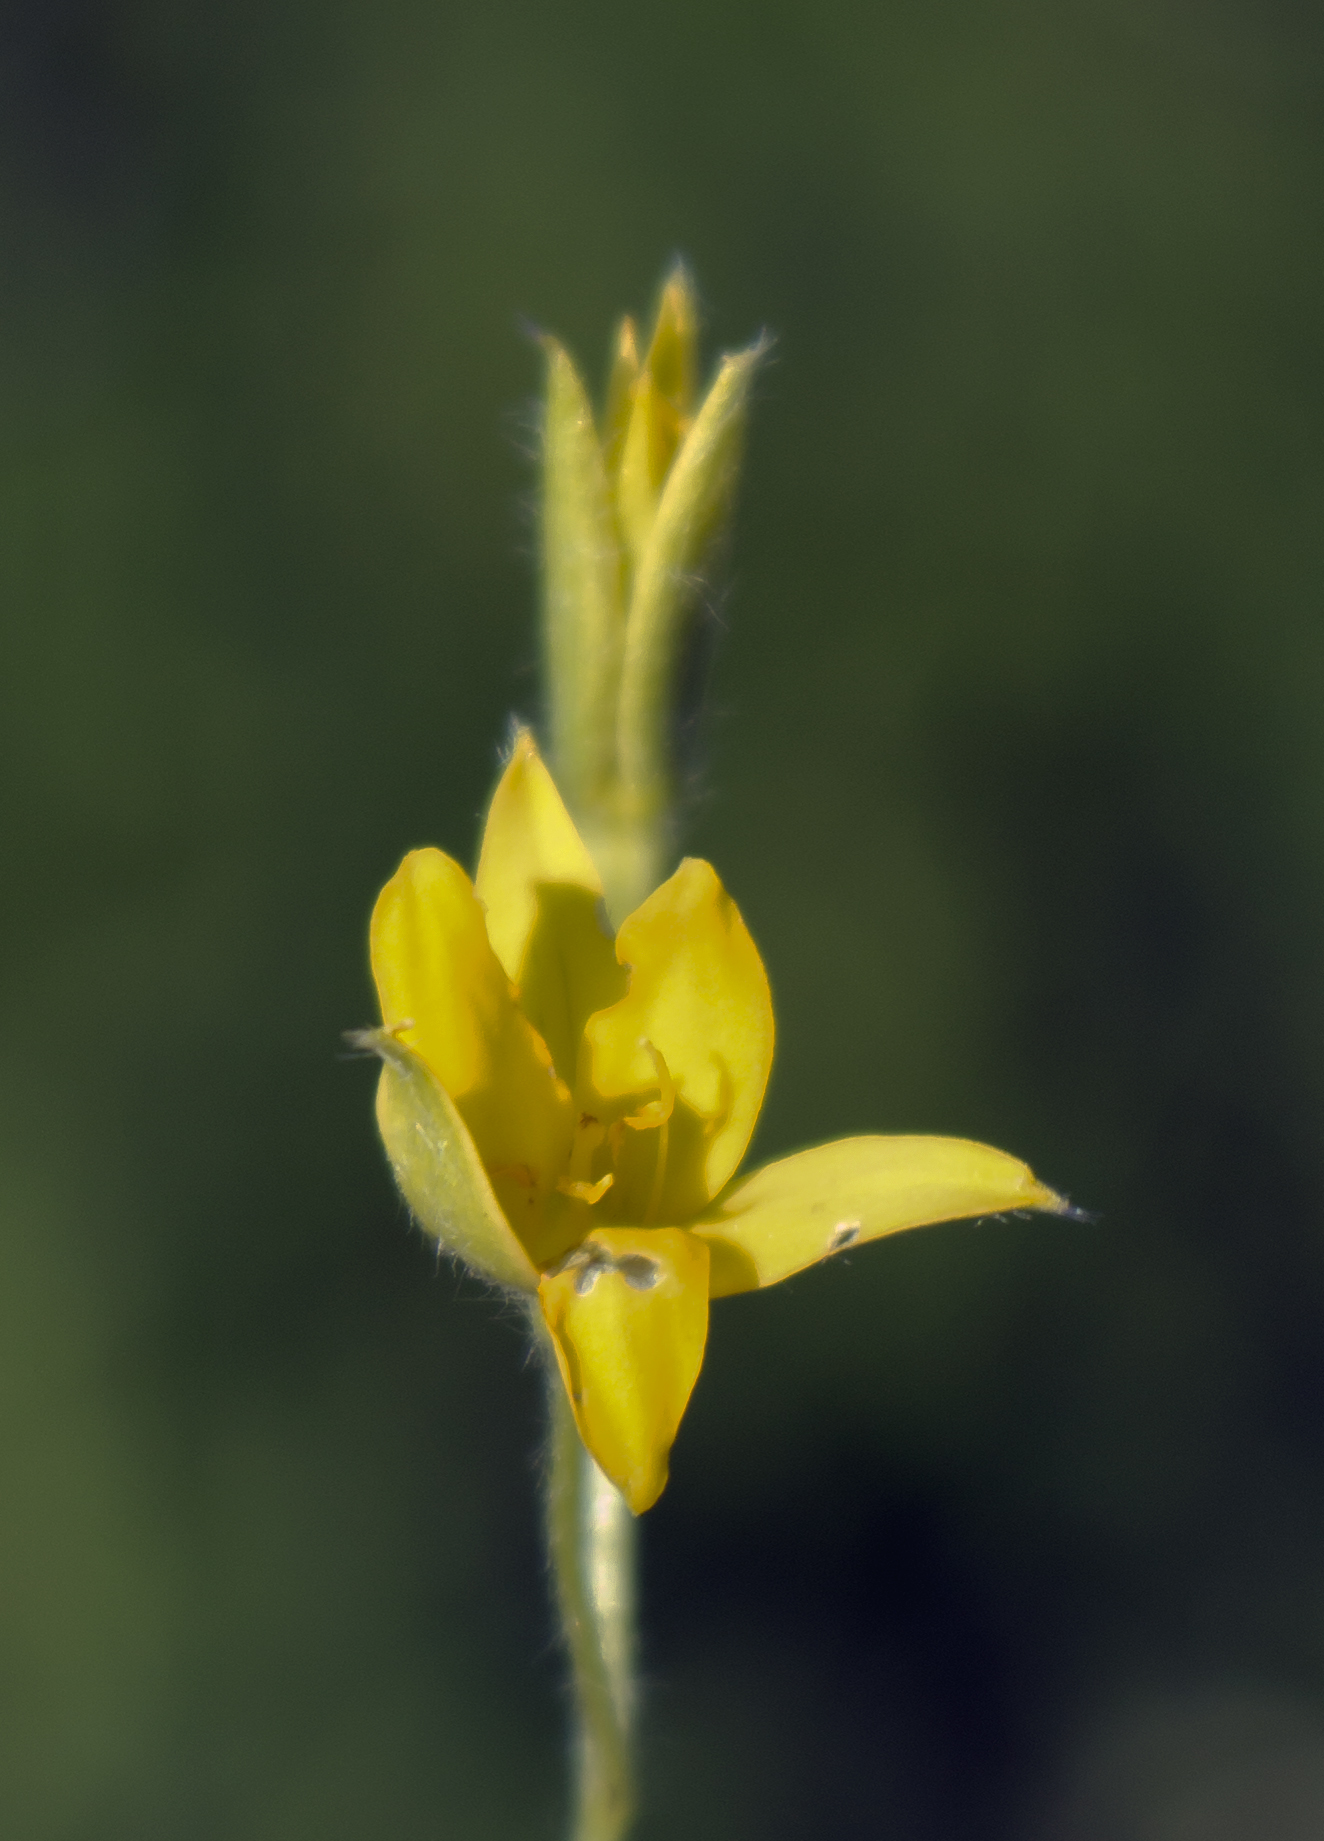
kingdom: Plantae
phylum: Tracheophyta
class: Liliopsida
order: Asparagales
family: Hypoxidaceae
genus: Hypoxis
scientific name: Hypoxis hirsuta
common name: Common goldstar
